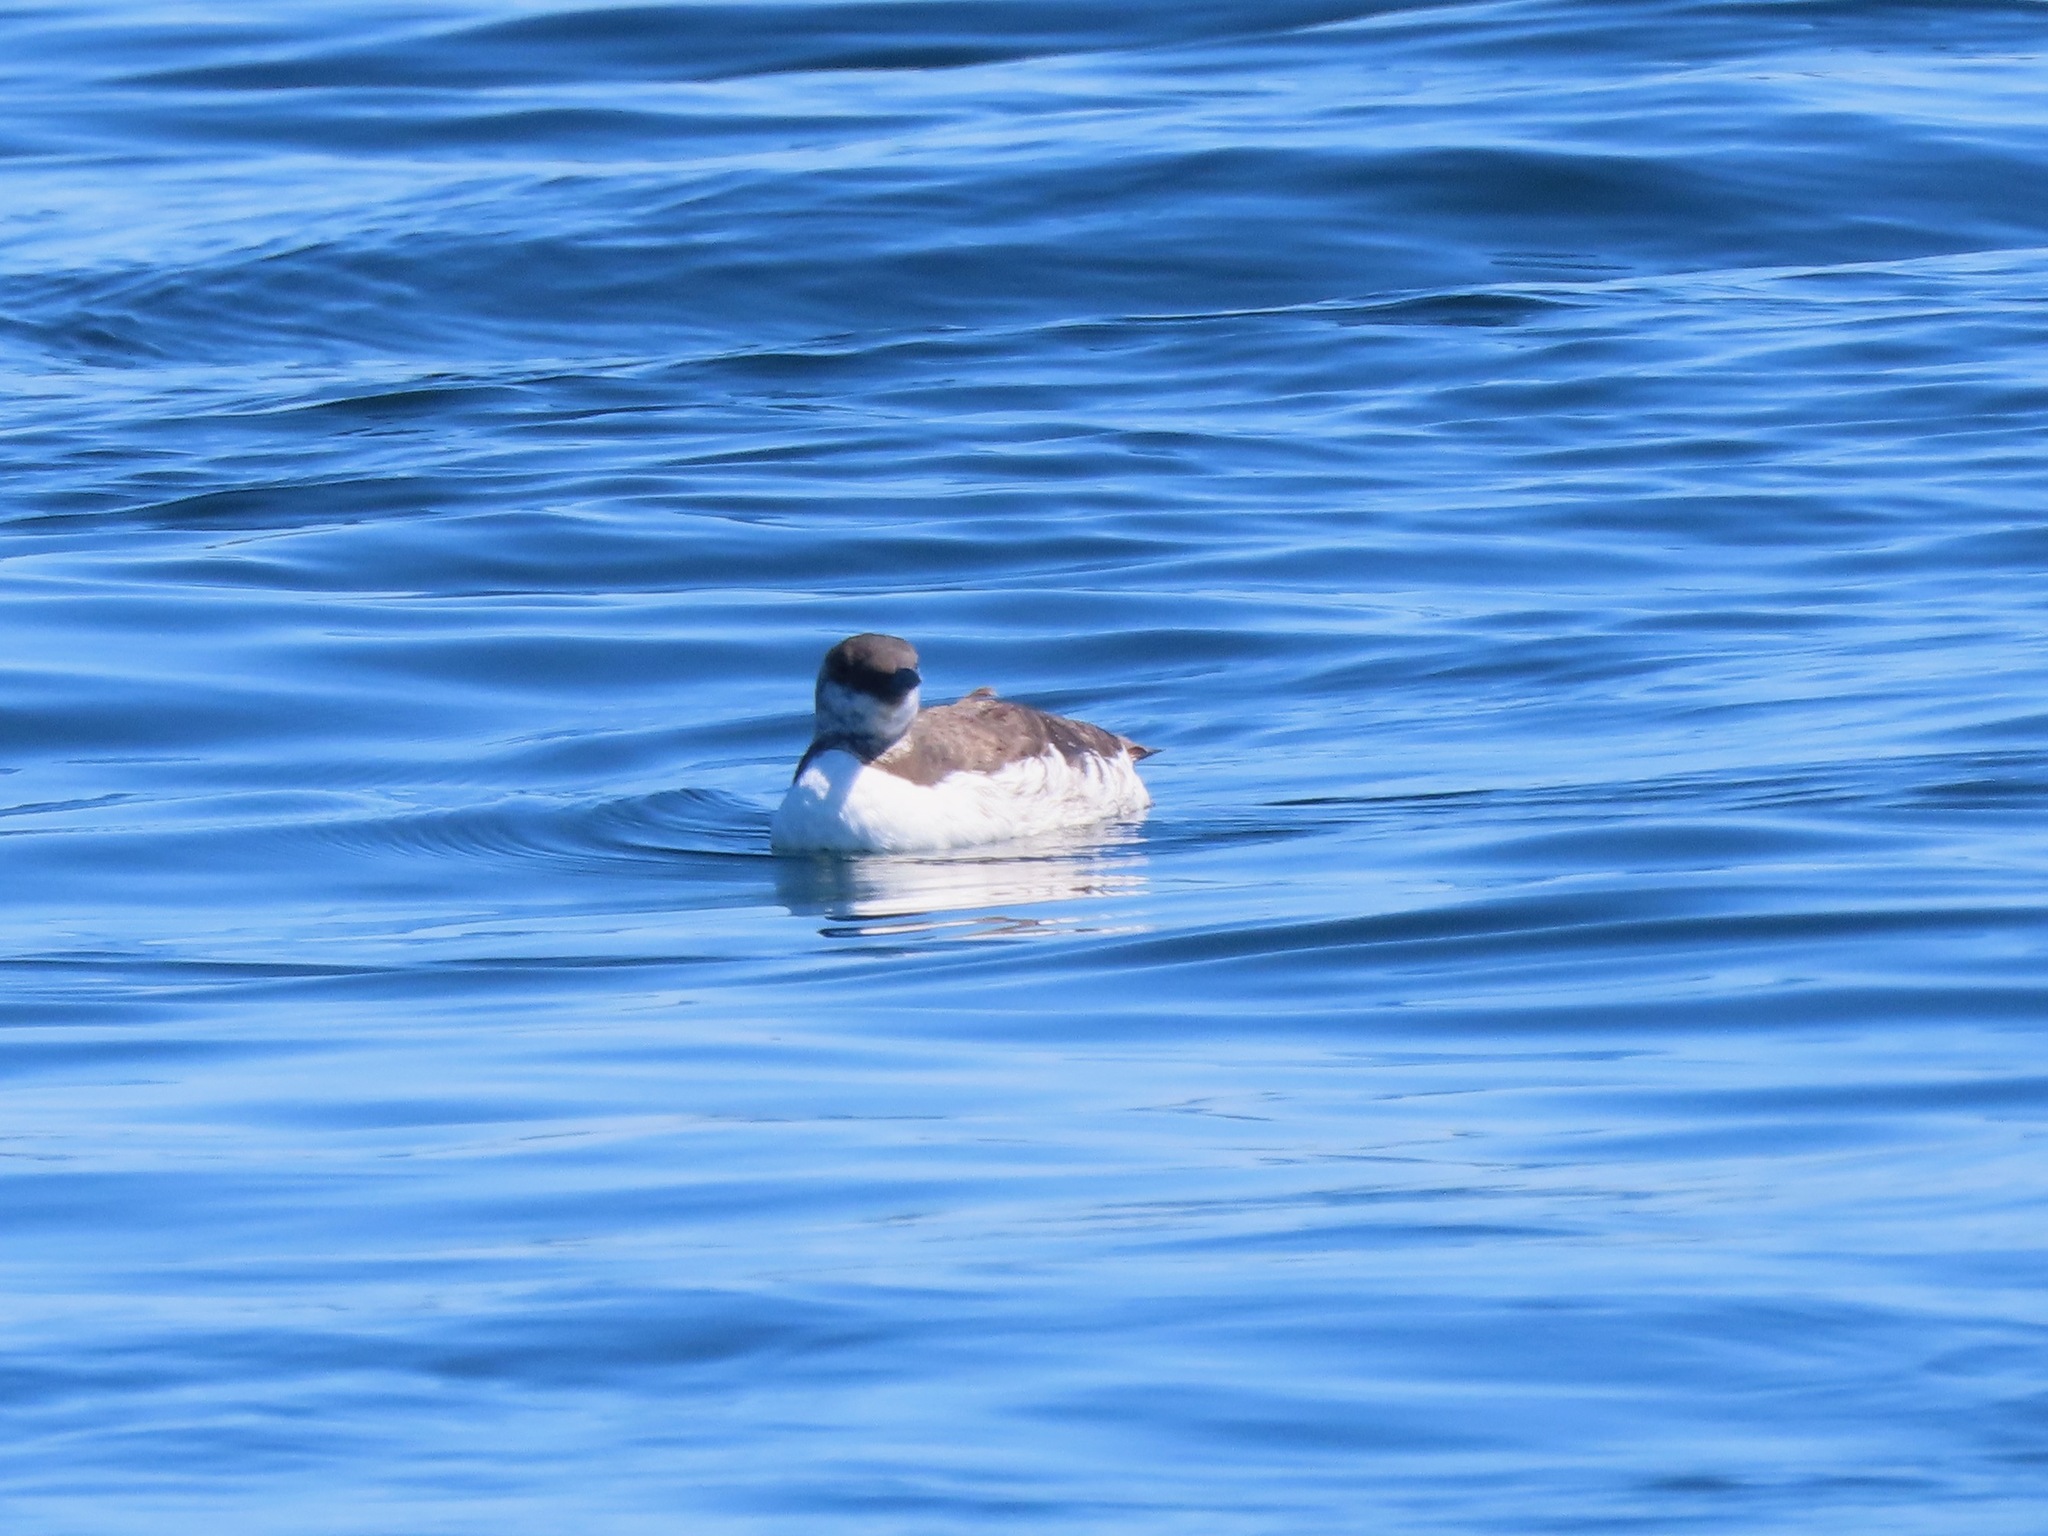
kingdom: Animalia
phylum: Chordata
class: Aves
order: Charadriiformes
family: Alcidae
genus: Uria
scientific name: Uria aalge
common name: Common murre
